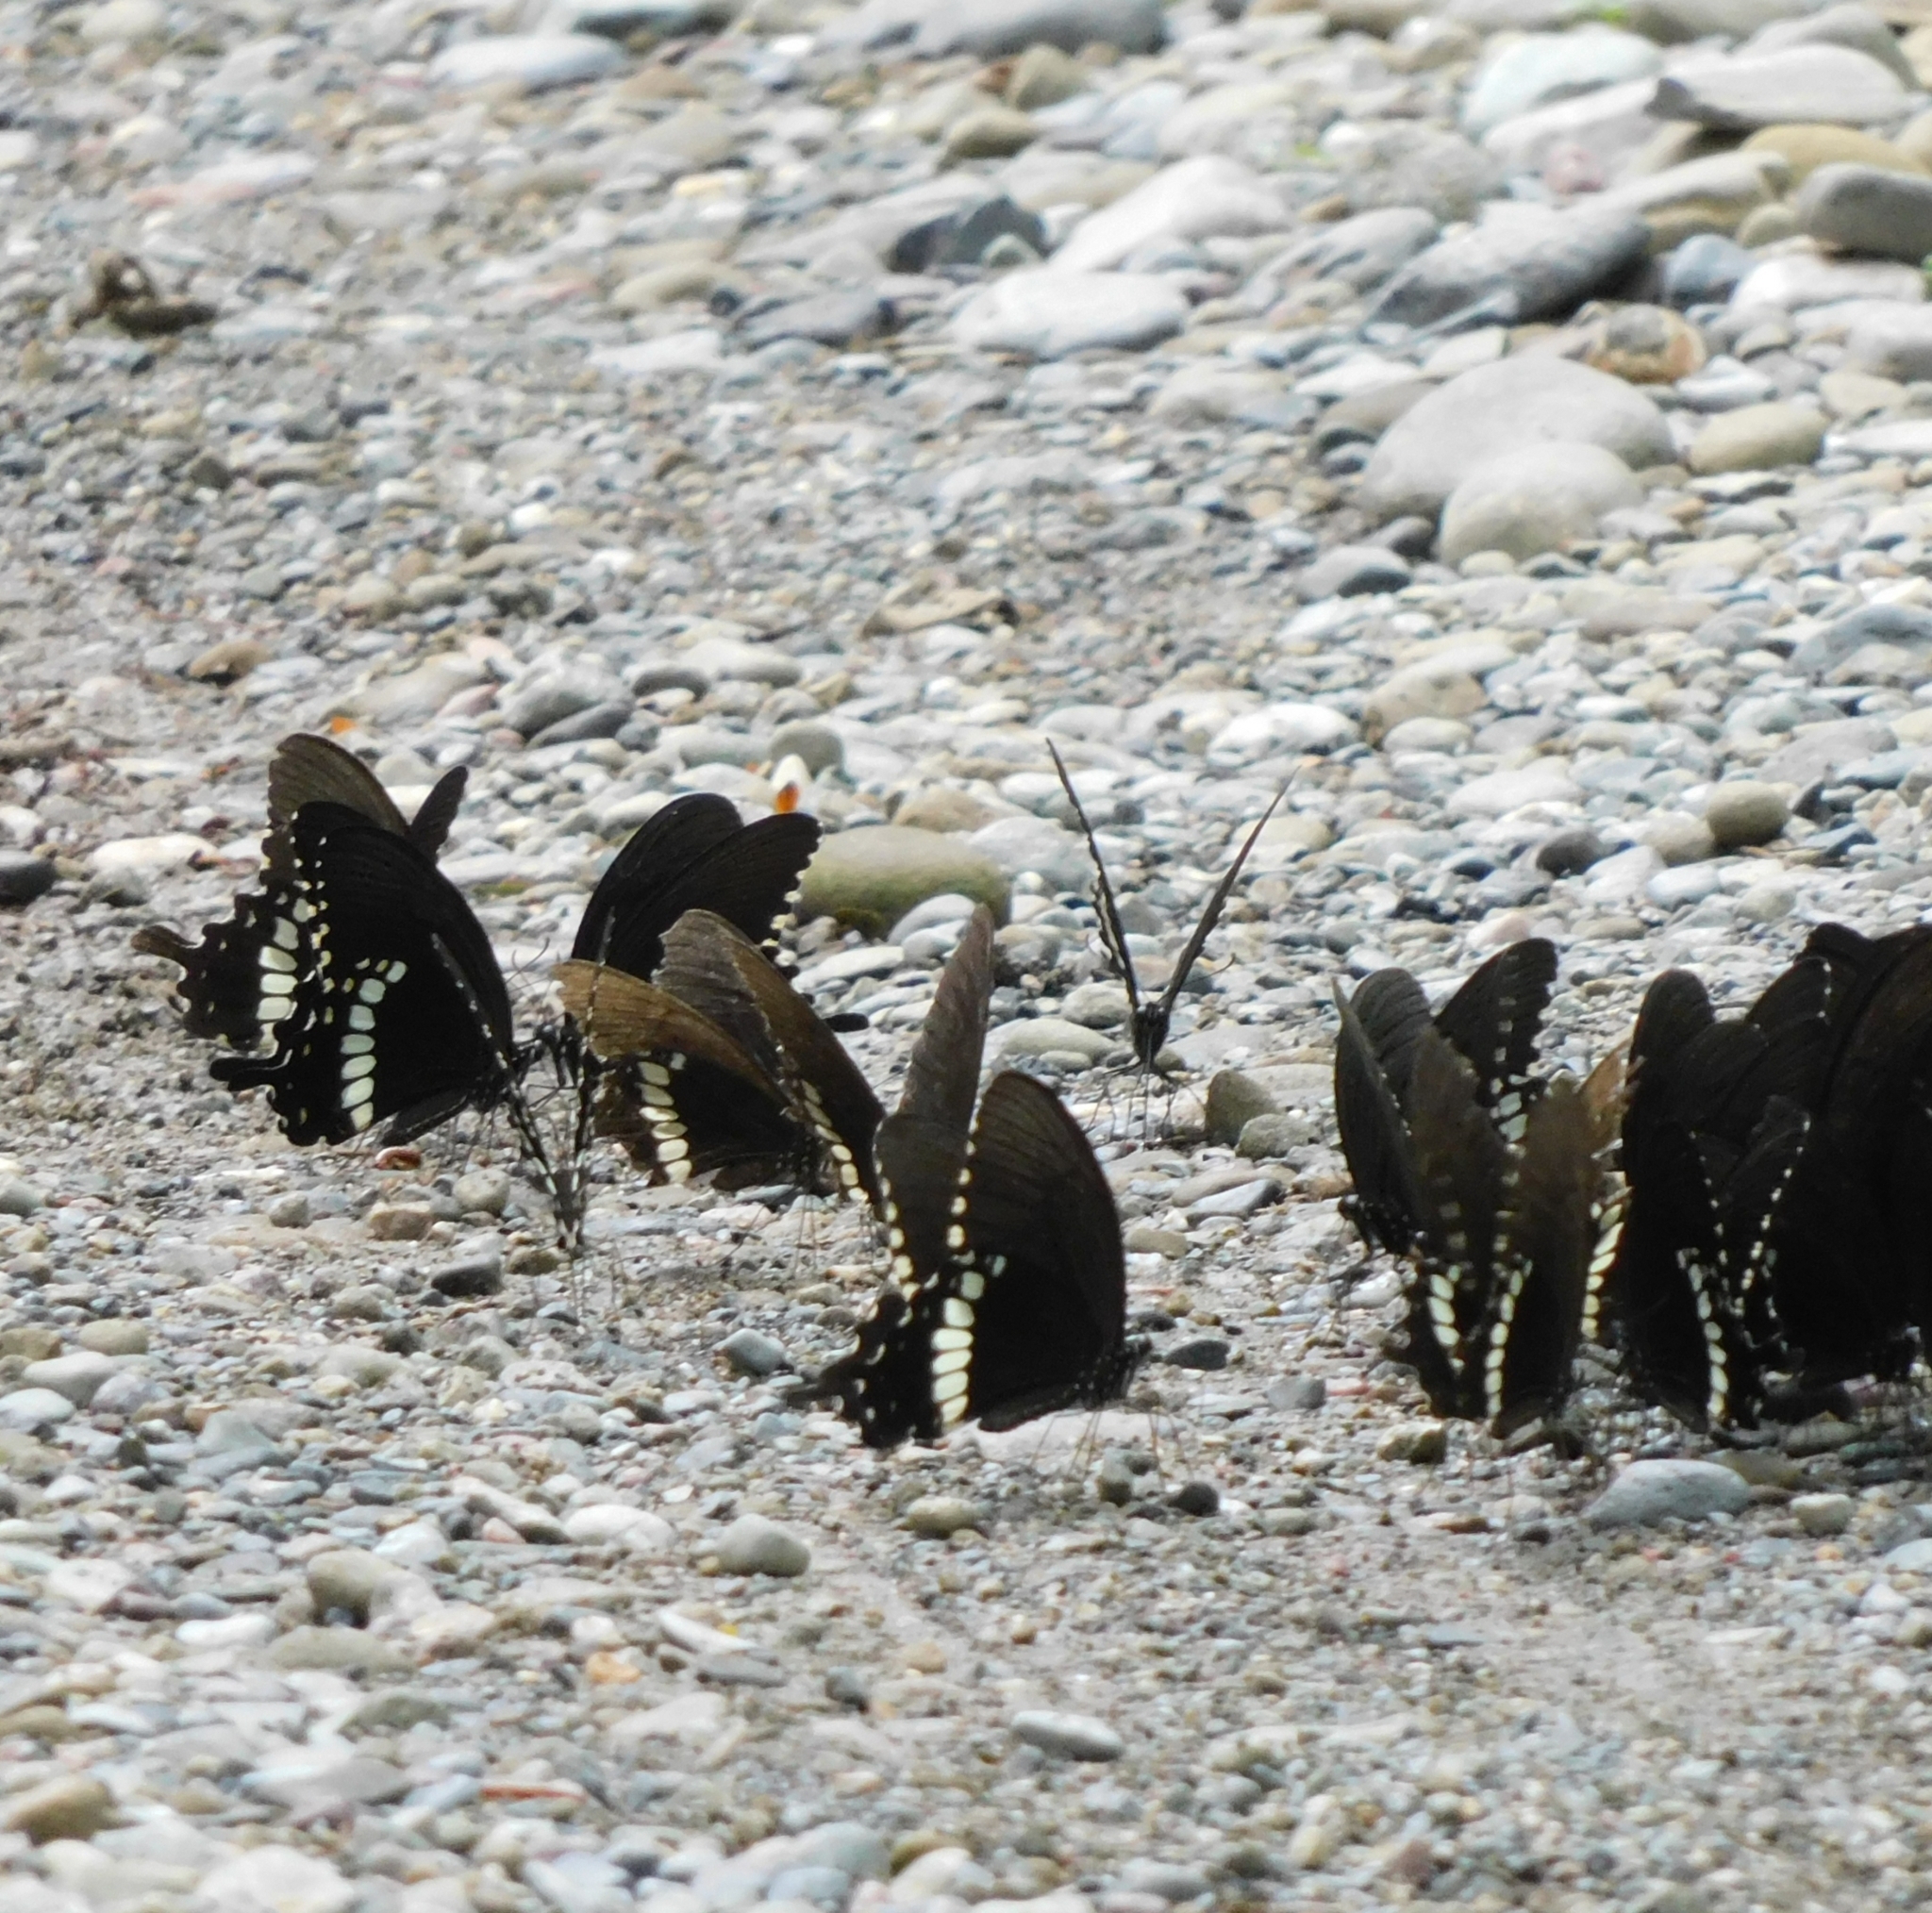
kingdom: Animalia
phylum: Arthropoda
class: Insecta
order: Lepidoptera
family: Papilionidae
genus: Papilio
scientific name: Papilio polytes
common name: Common mormon
